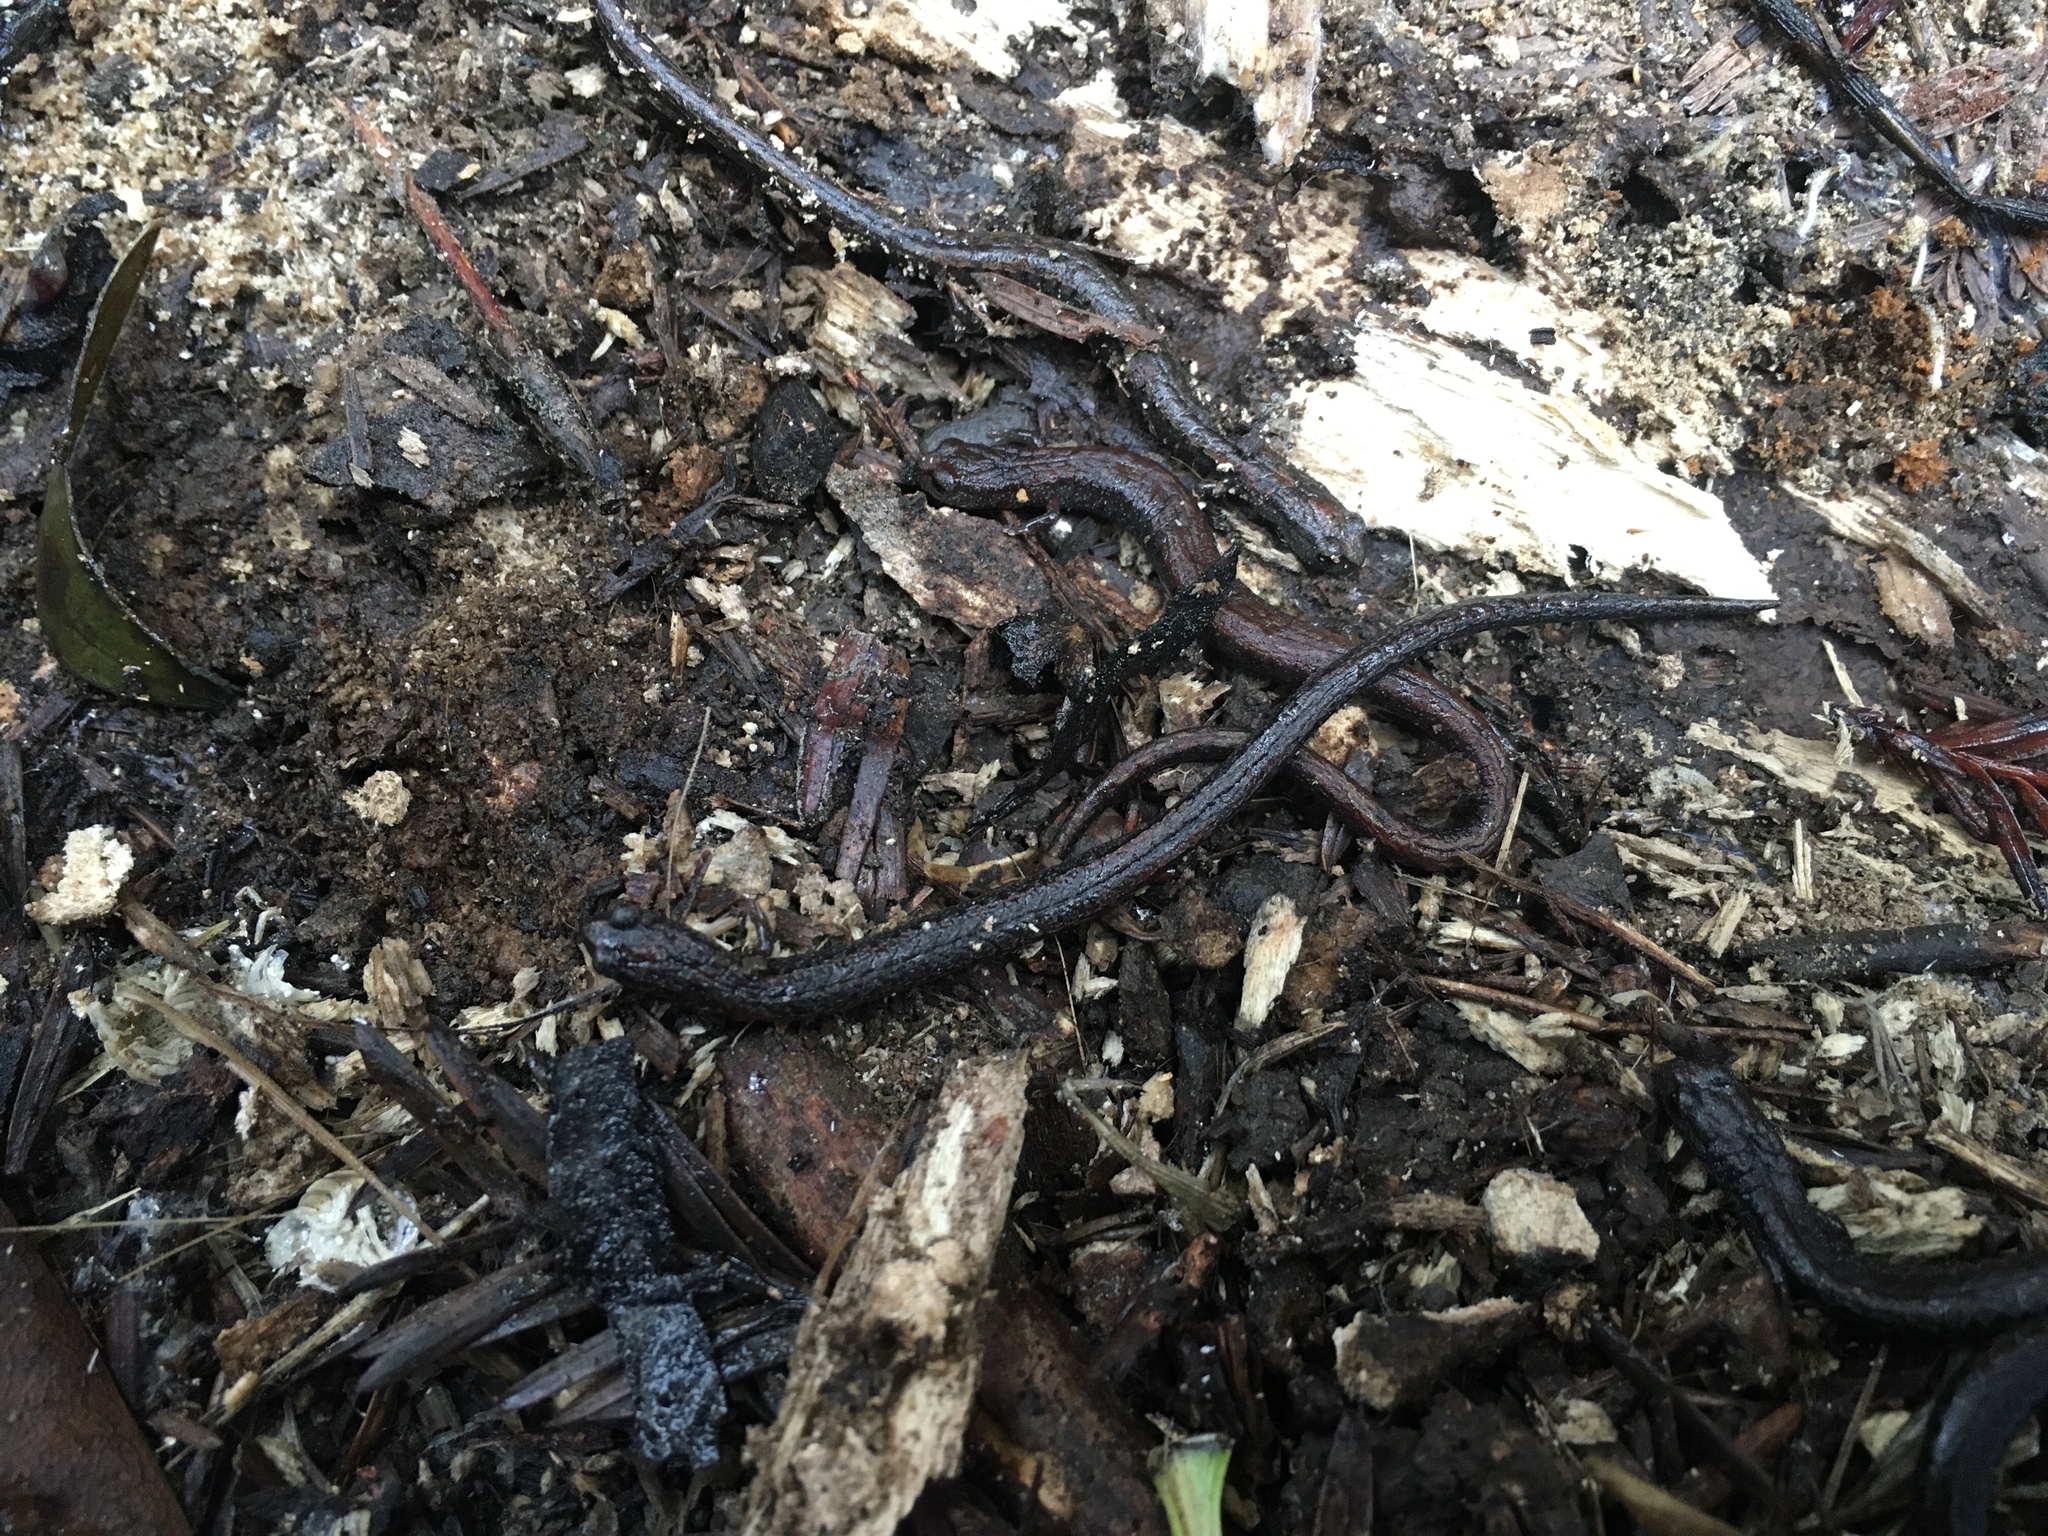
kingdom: Animalia
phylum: Chordata
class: Amphibia
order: Caudata
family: Plethodontidae
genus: Batrachoseps
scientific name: Batrachoseps attenuatus
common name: California slender salamander
